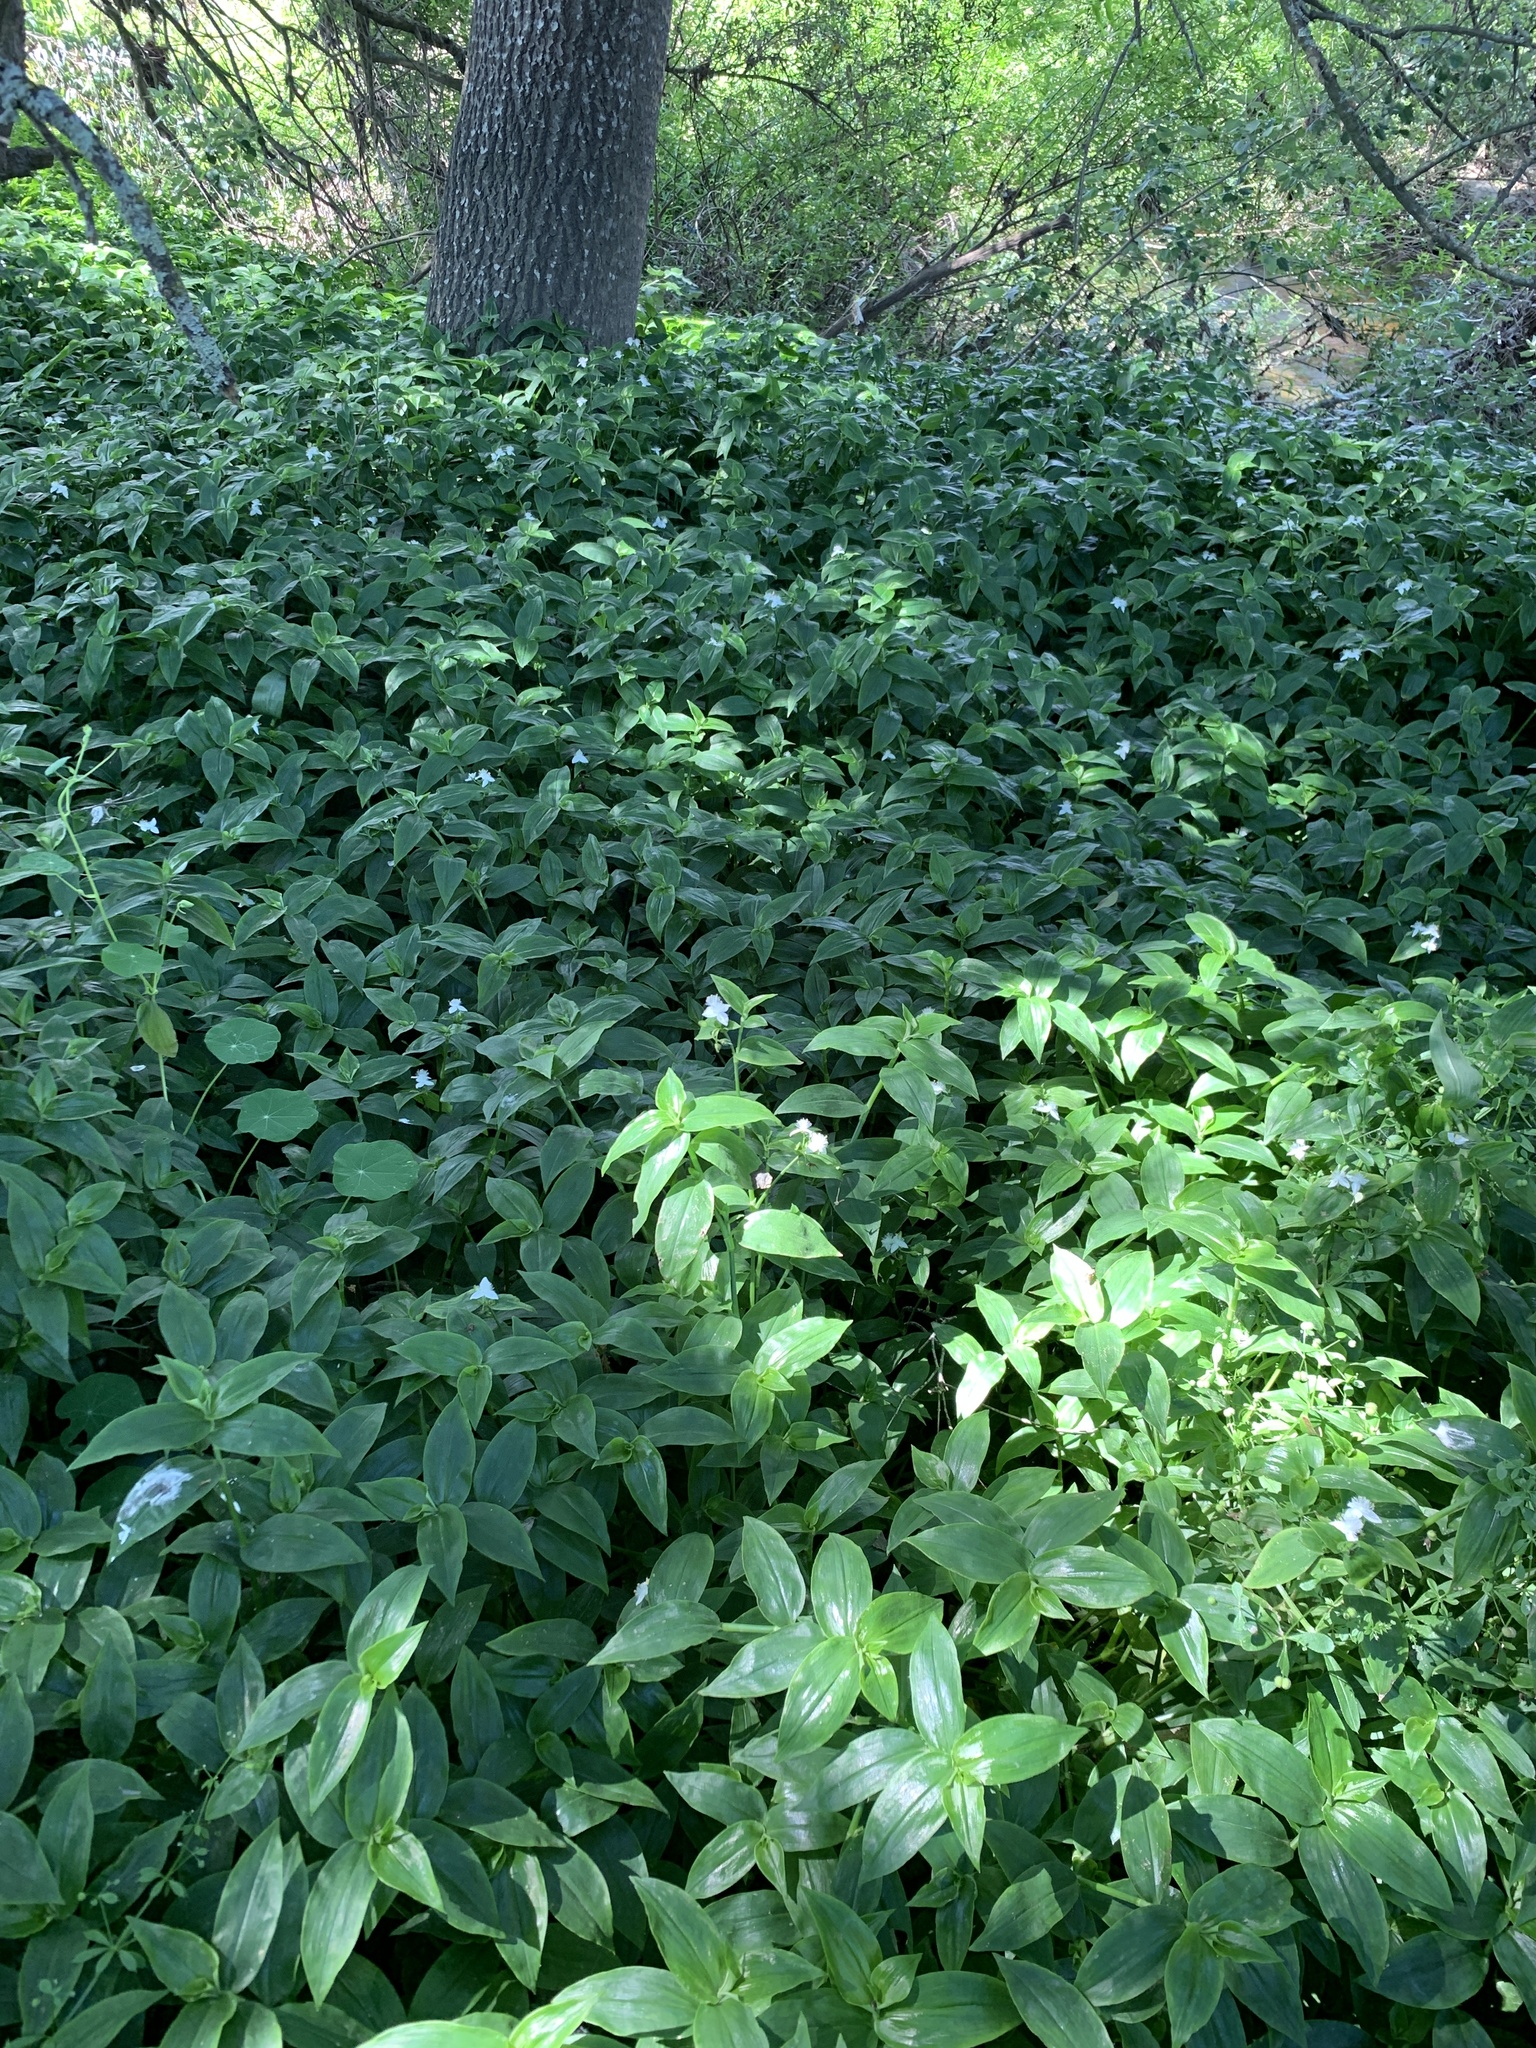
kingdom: Plantae
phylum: Tracheophyta
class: Liliopsida
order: Commelinales
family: Commelinaceae
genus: Tradescantia
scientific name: Tradescantia fluminensis
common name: Wandering-jew
